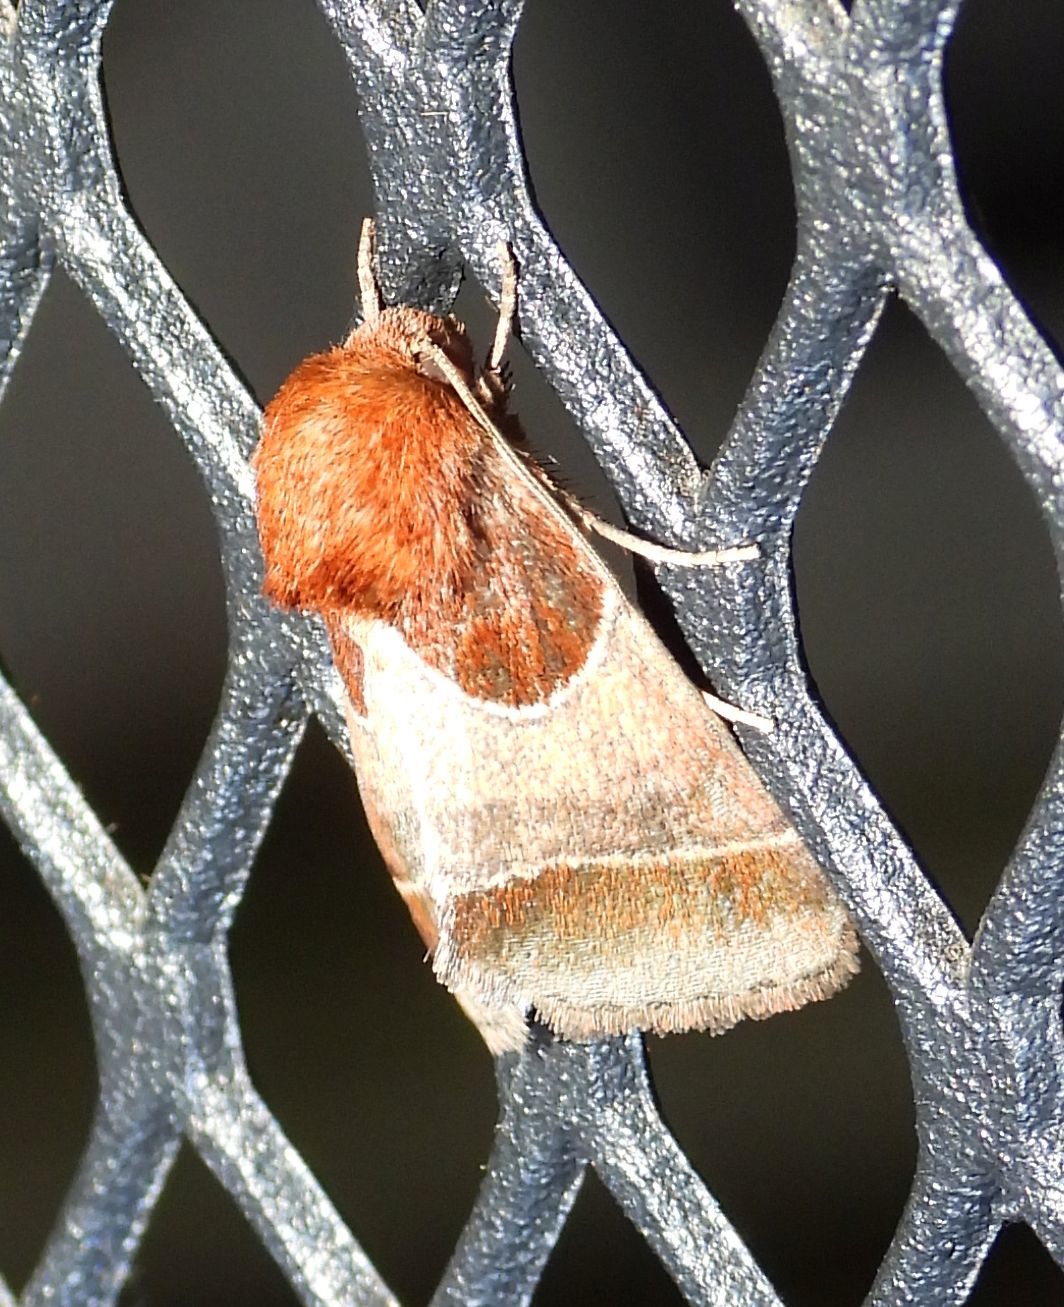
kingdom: Animalia
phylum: Arthropoda
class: Insecta
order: Lepidoptera
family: Noctuidae
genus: Schinia
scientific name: Schinia arcigera
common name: Arcigera flower moth
